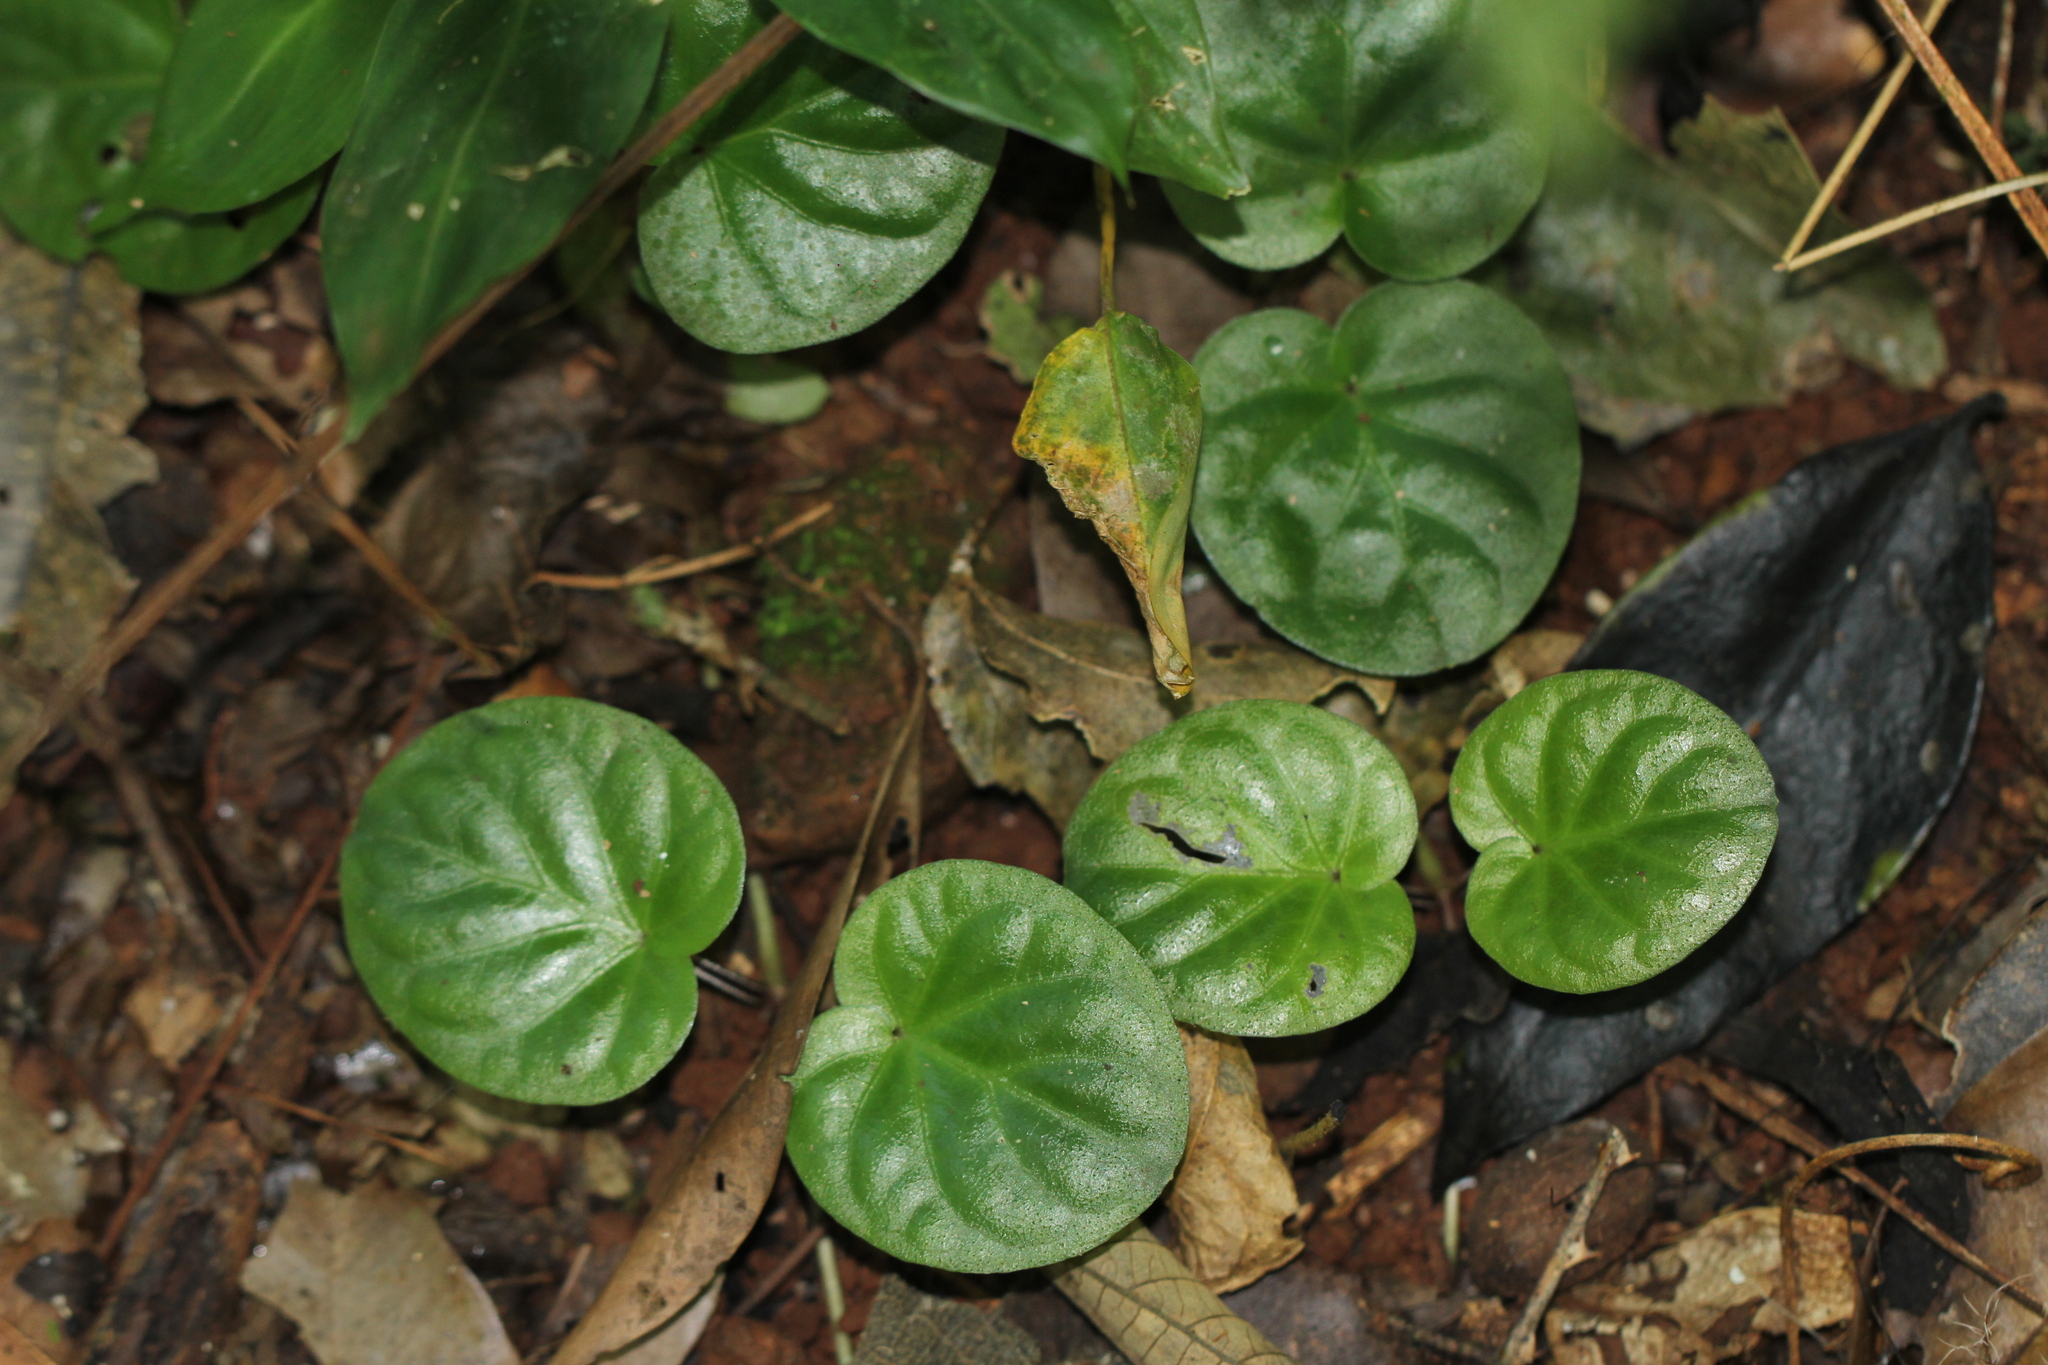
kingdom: Plantae
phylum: Tracheophyta
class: Magnoliopsida
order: Gentianales
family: Rubiaceae
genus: Geophila
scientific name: Geophila
